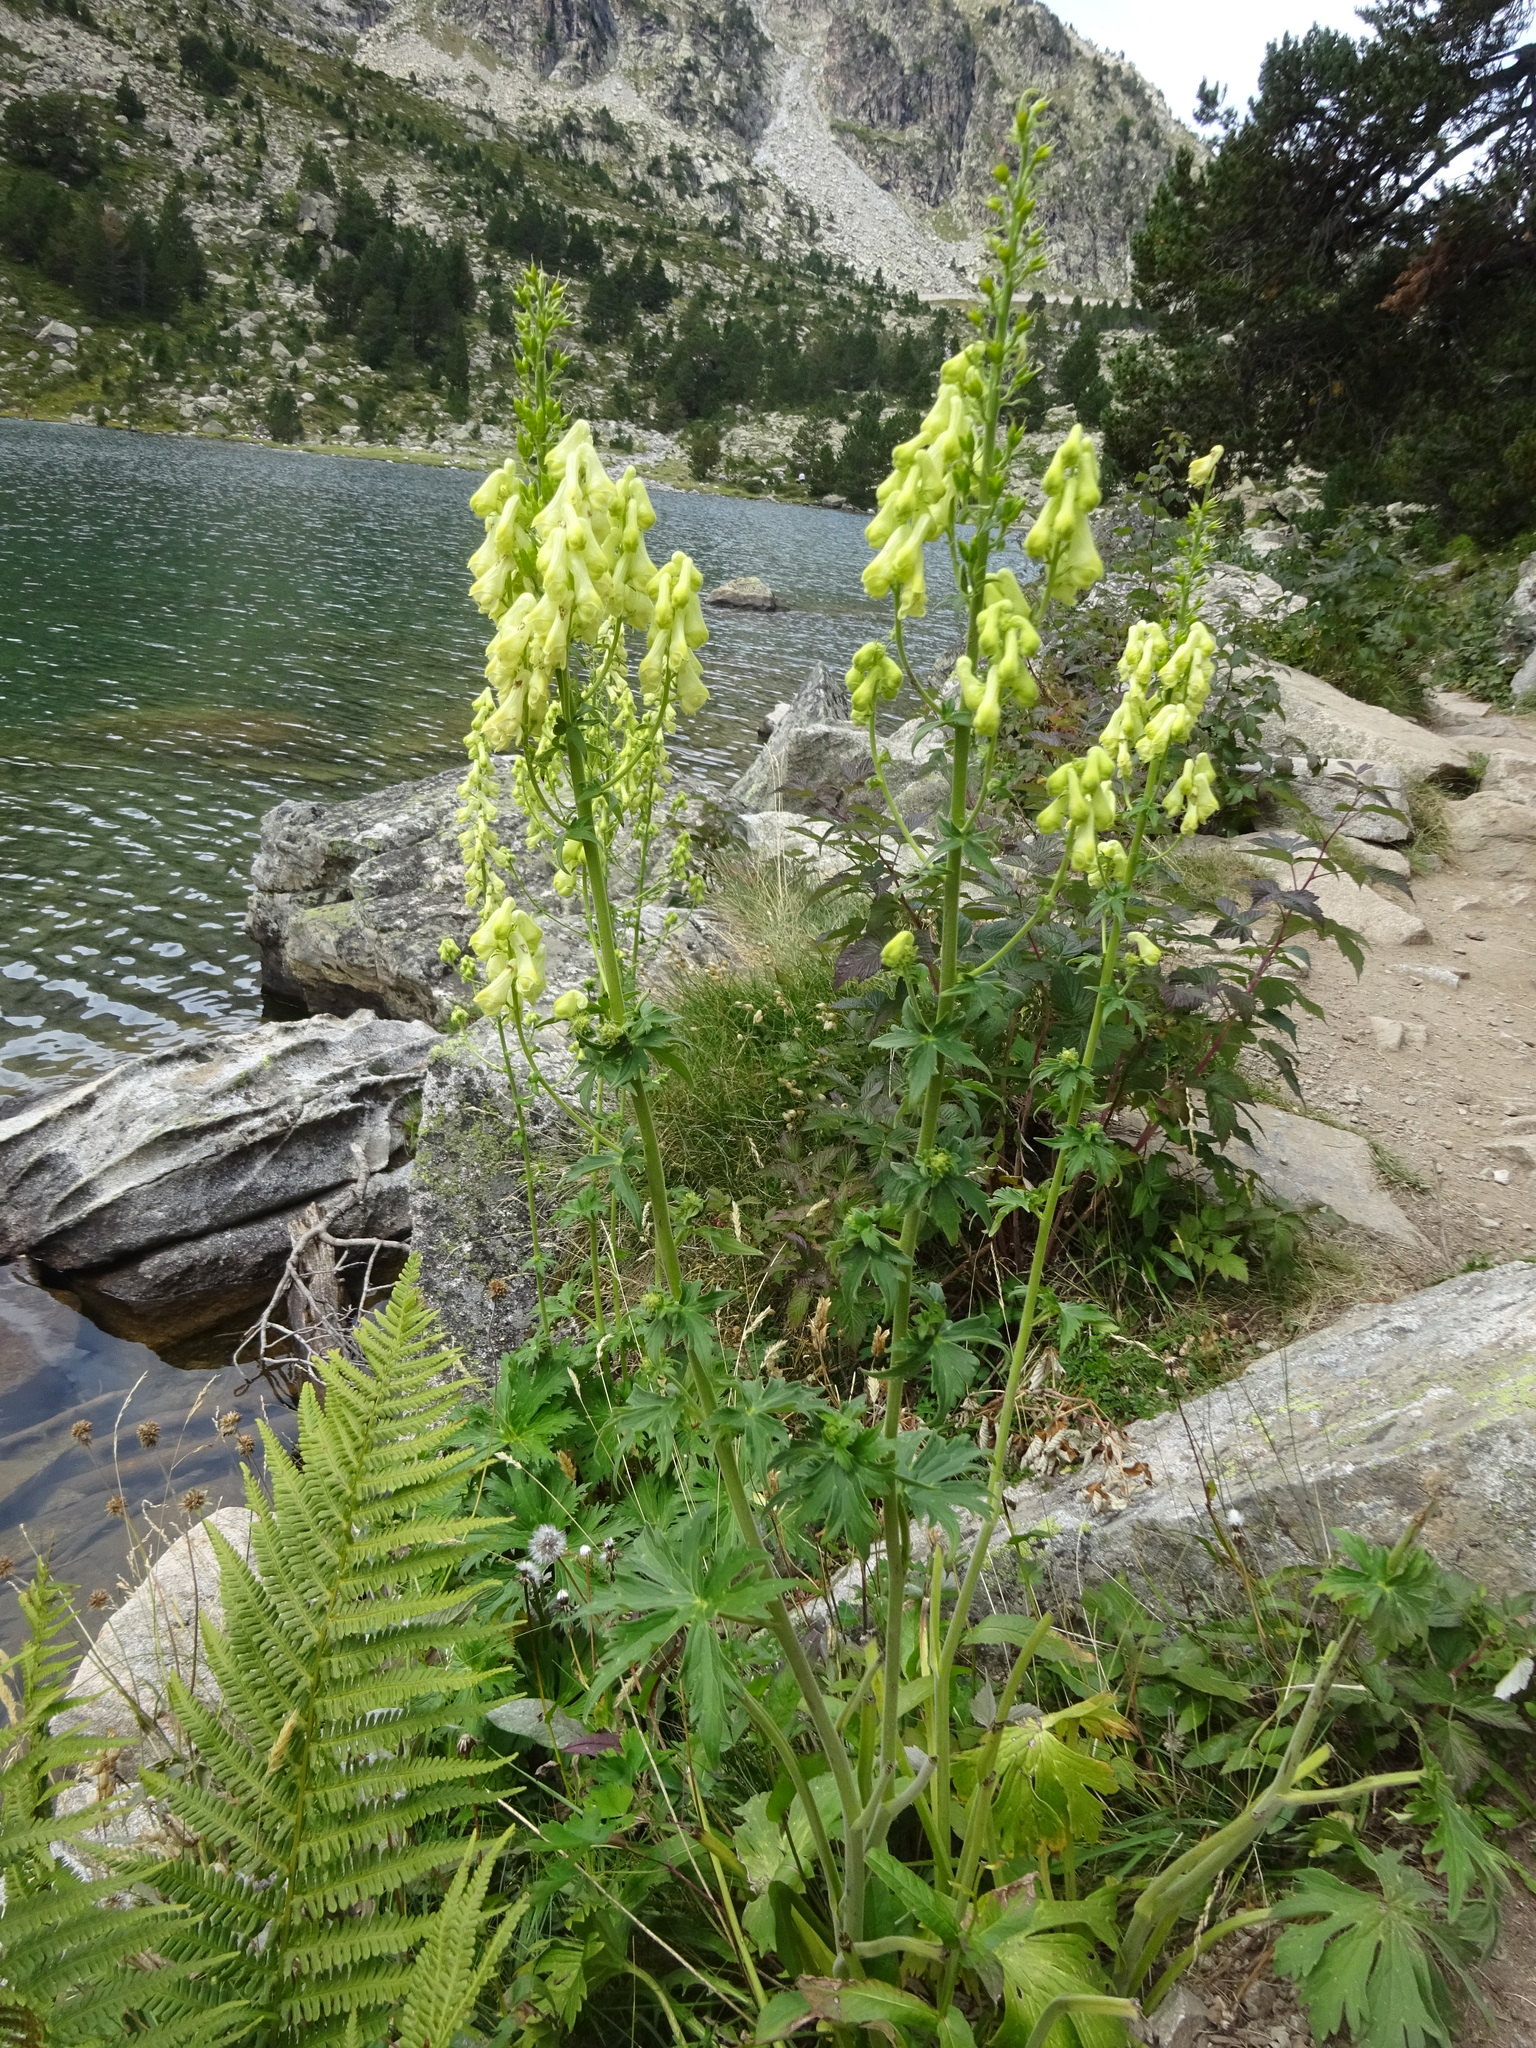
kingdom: Plantae
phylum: Tracheophyta
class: Magnoliopsida
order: Ranunculales
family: Ranunculaceae
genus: Aconitum
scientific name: Aconitum lycoctonum
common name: Wolf's-bane
